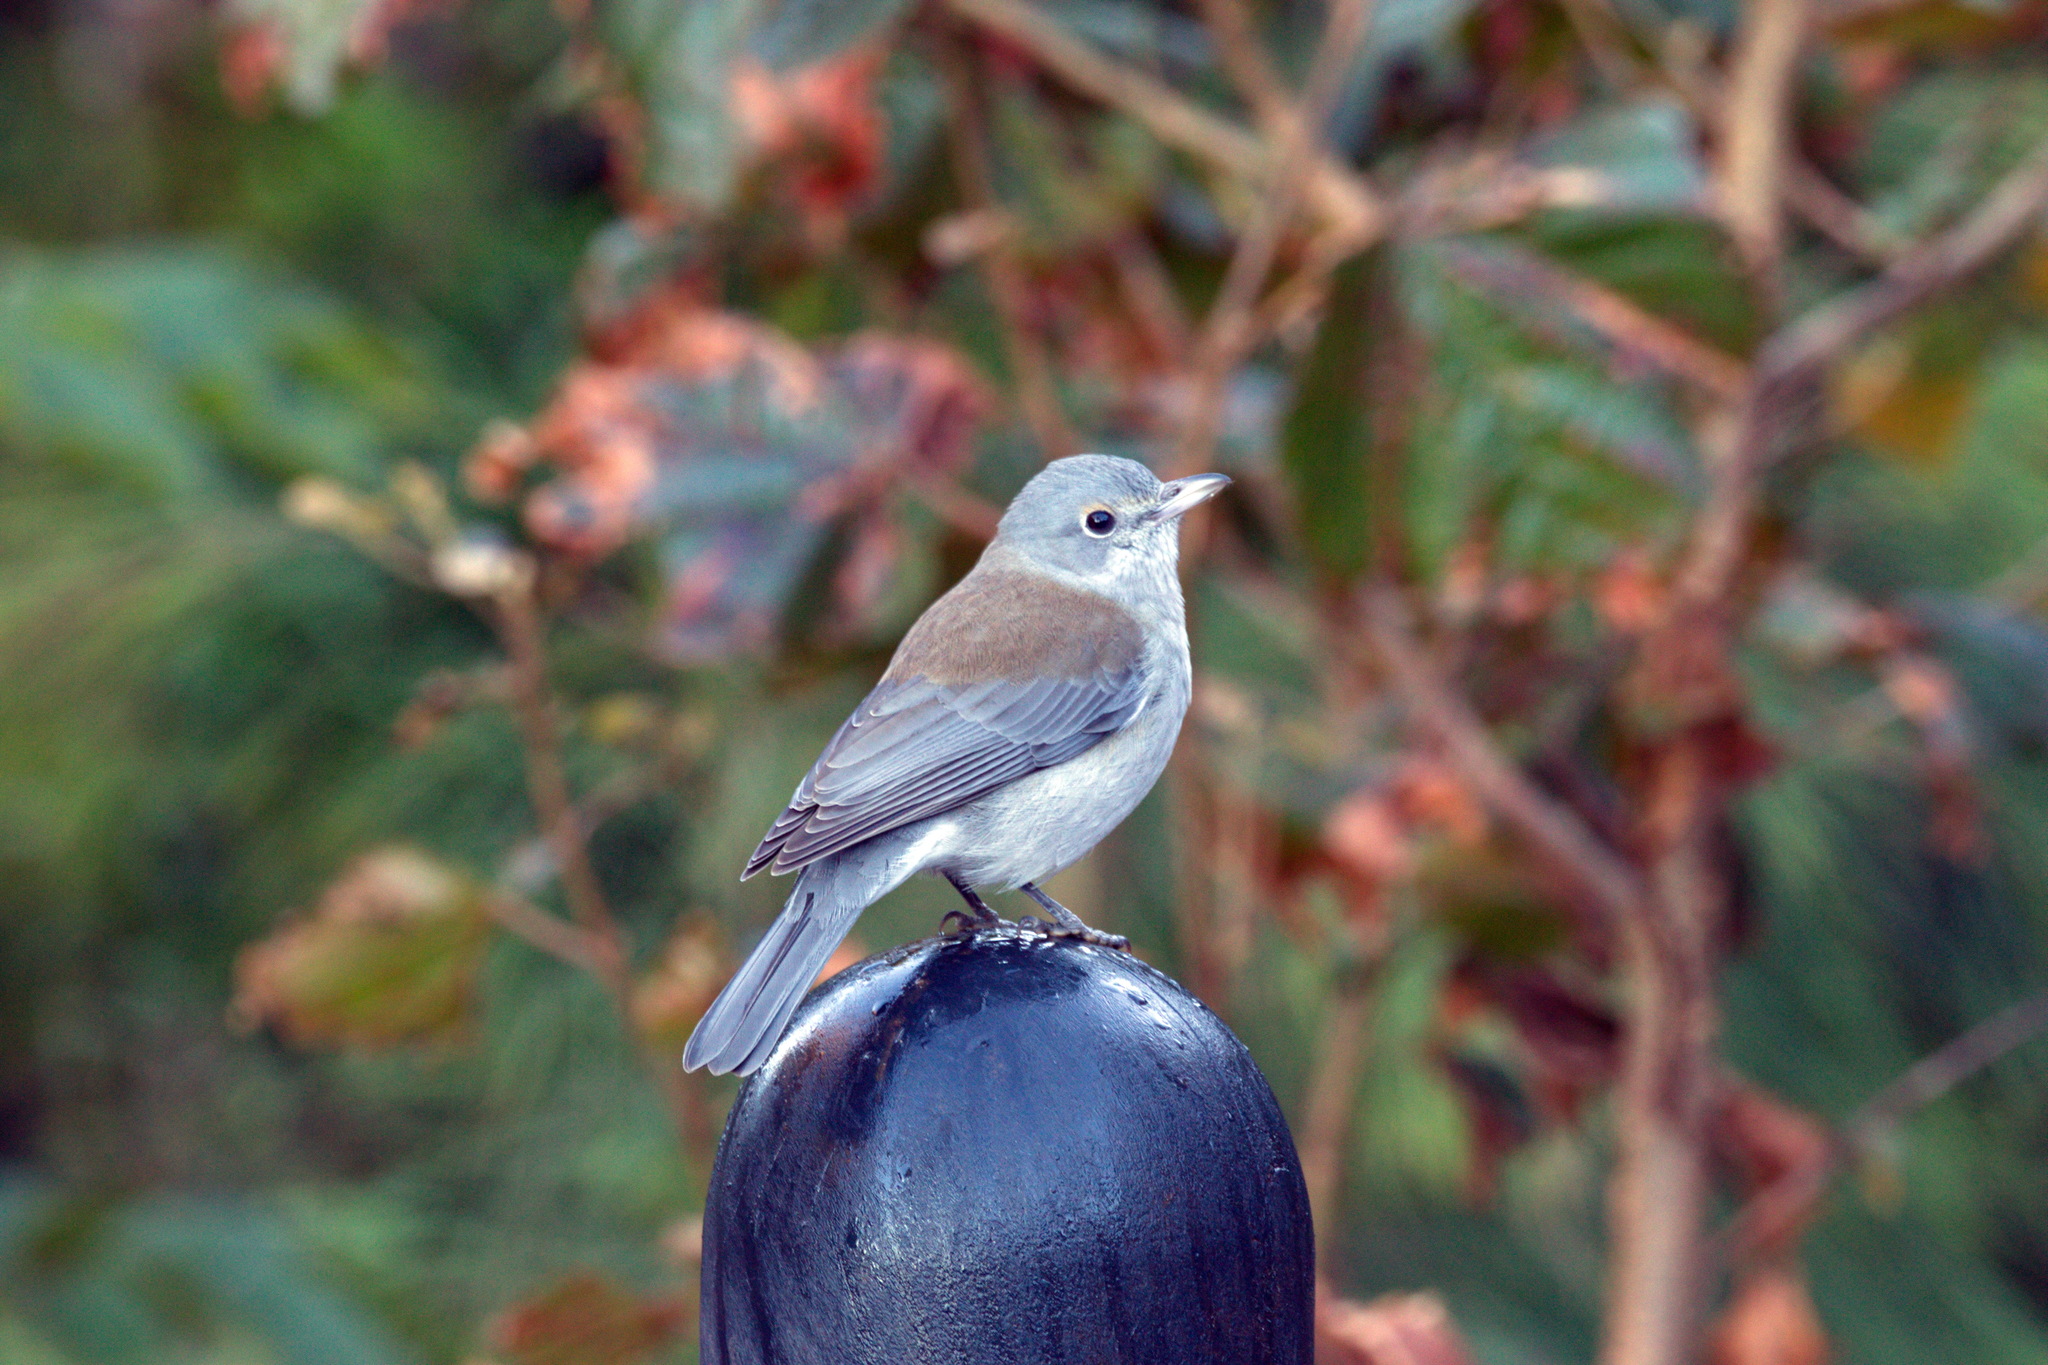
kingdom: Animalia
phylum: Chordata
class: Aves
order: Passeriformes
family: Pachycephalidae
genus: Colluricincla
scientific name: Colluricincla harmonica
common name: Grey shrikethrush
